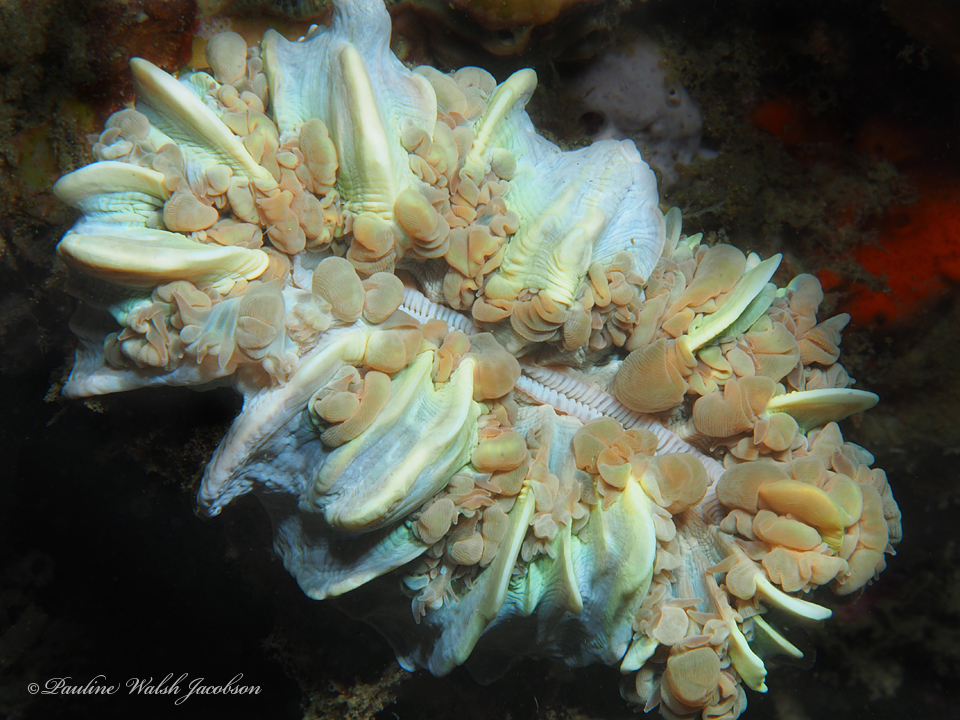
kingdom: Animalia
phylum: Cnidaria
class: Anthozoa
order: Scleractinia
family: Plerogyridae
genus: Plerogyra
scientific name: Plerogyra sinuosa
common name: Bubble coral
